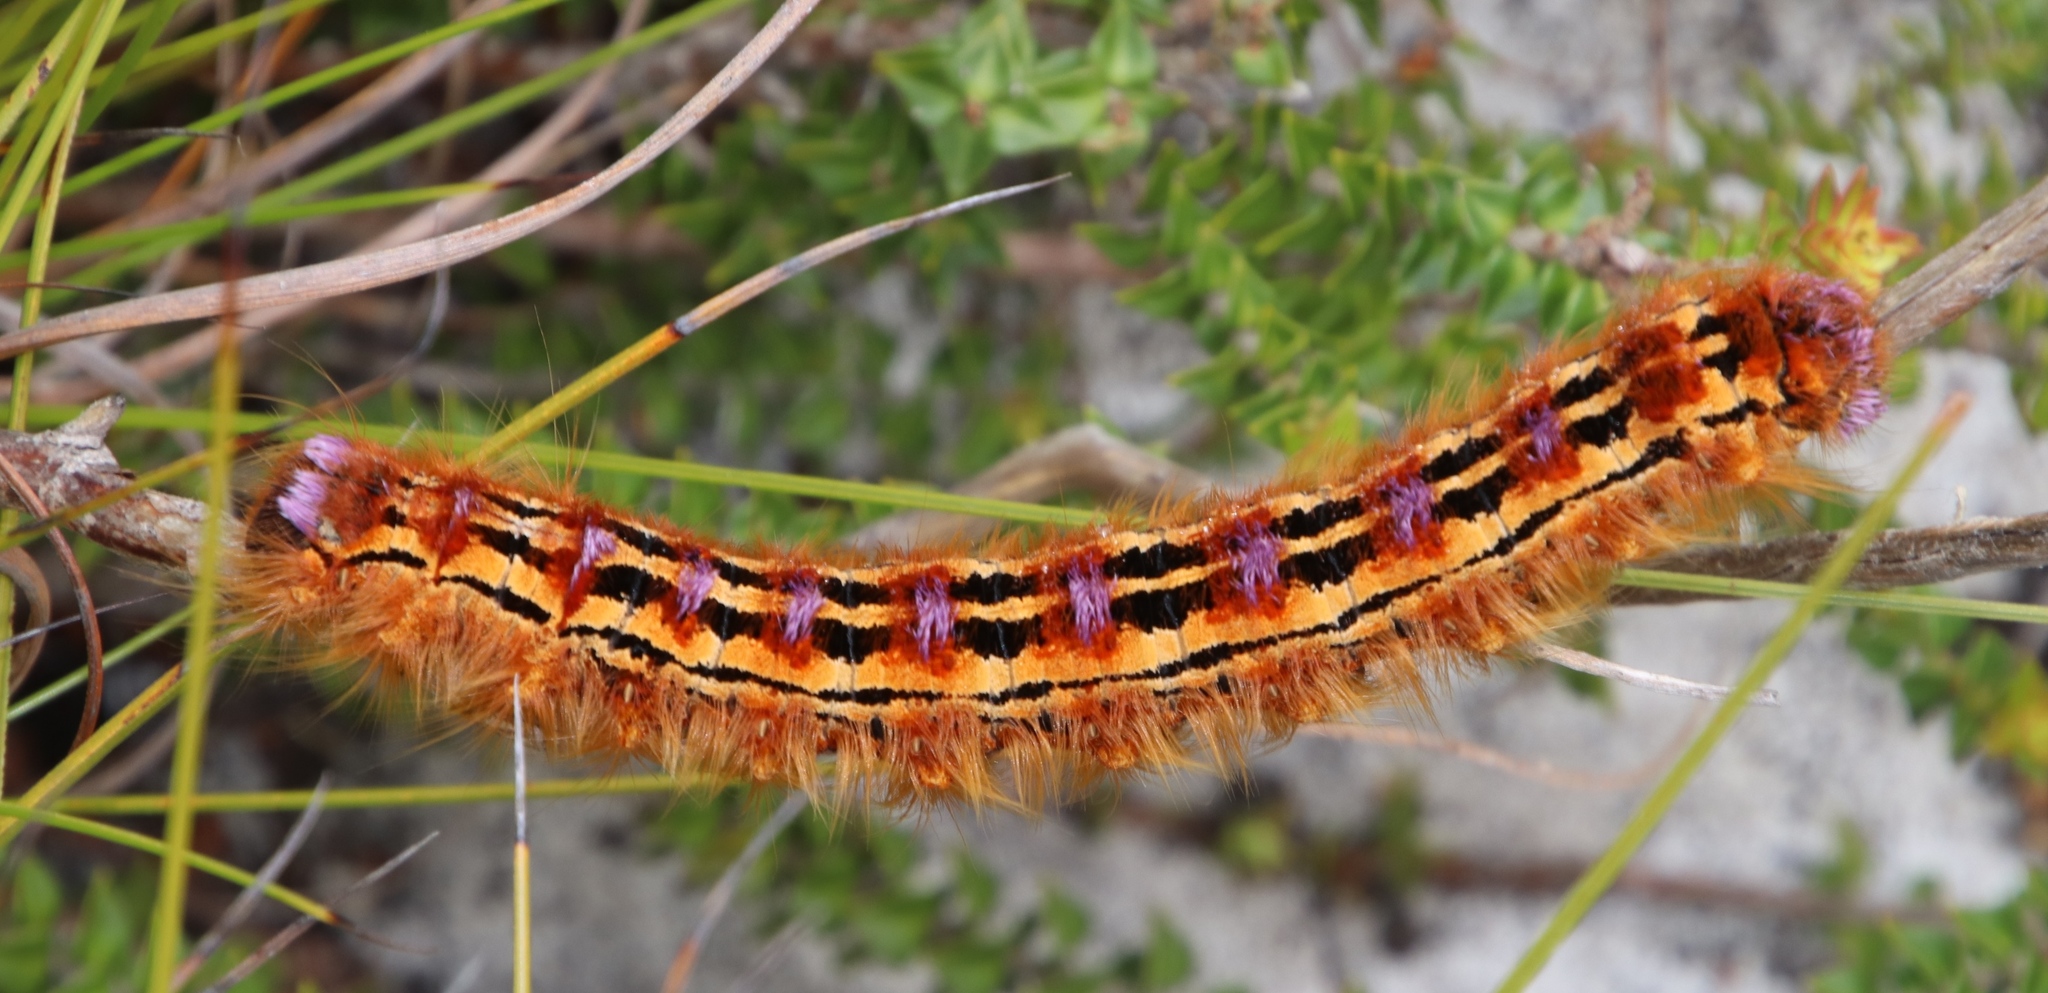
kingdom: Animalia
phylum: Arthropoda
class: Insecta
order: Lepidoptera
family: Lasiocampidae
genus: Eutricha
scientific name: Eutricha bifascia
